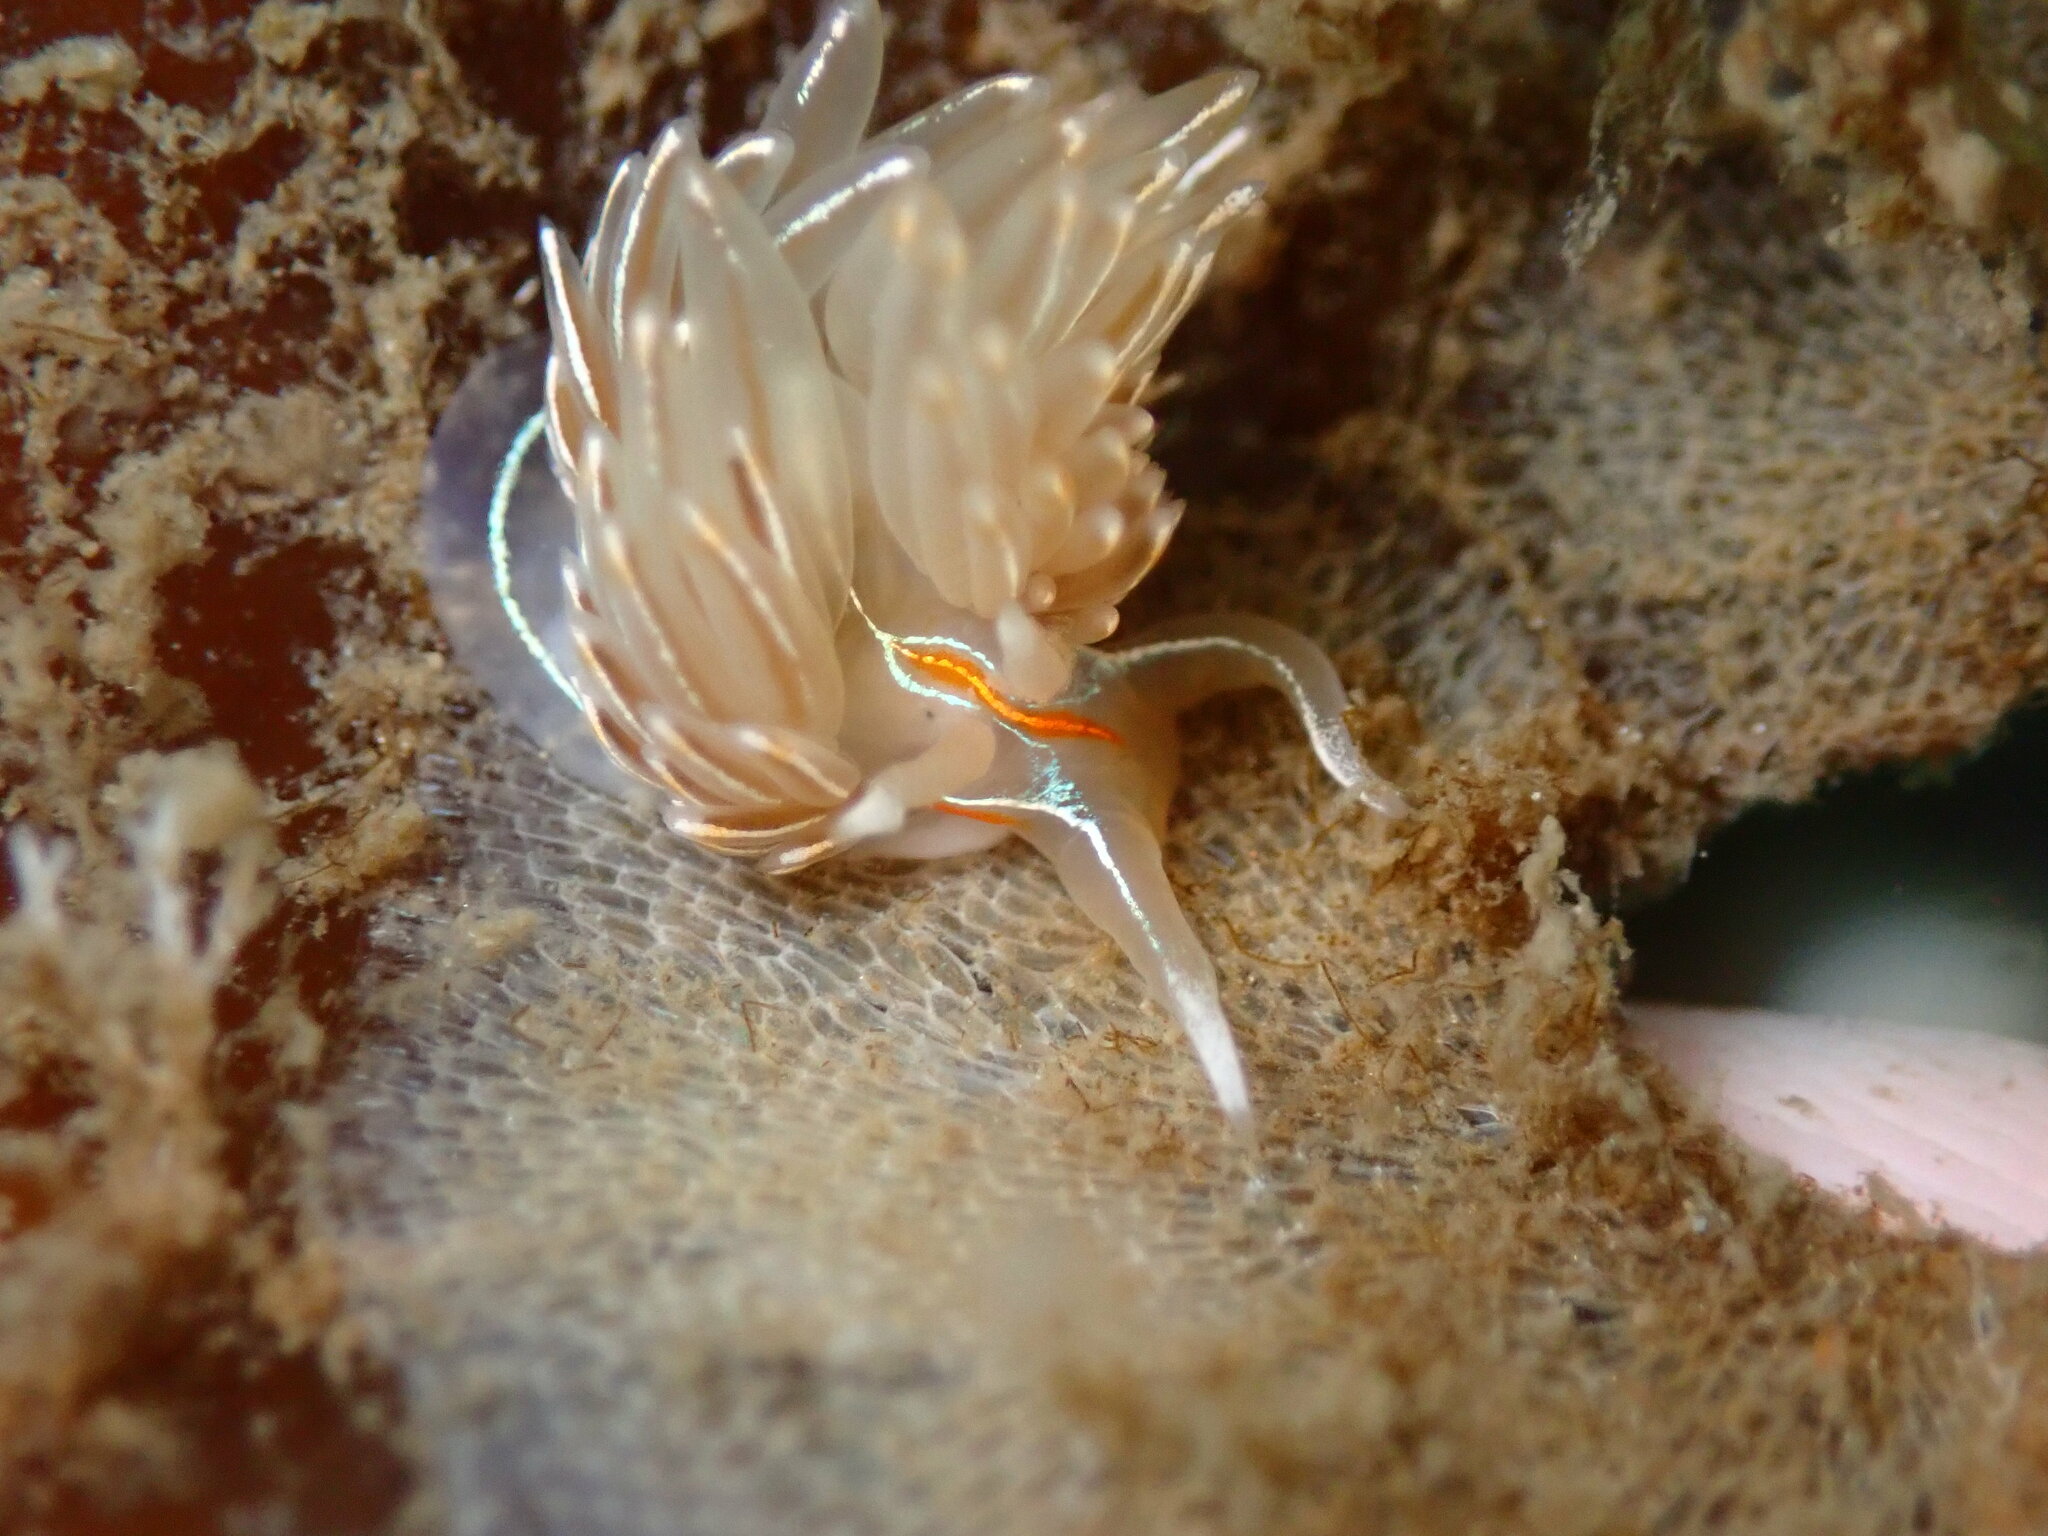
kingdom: Animalia
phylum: Mollusca
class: Gastropoda
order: Nudibranchia
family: Myrrhinidae
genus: Hermissenda
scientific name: Hermissenda crassicornis
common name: Hermissenda
